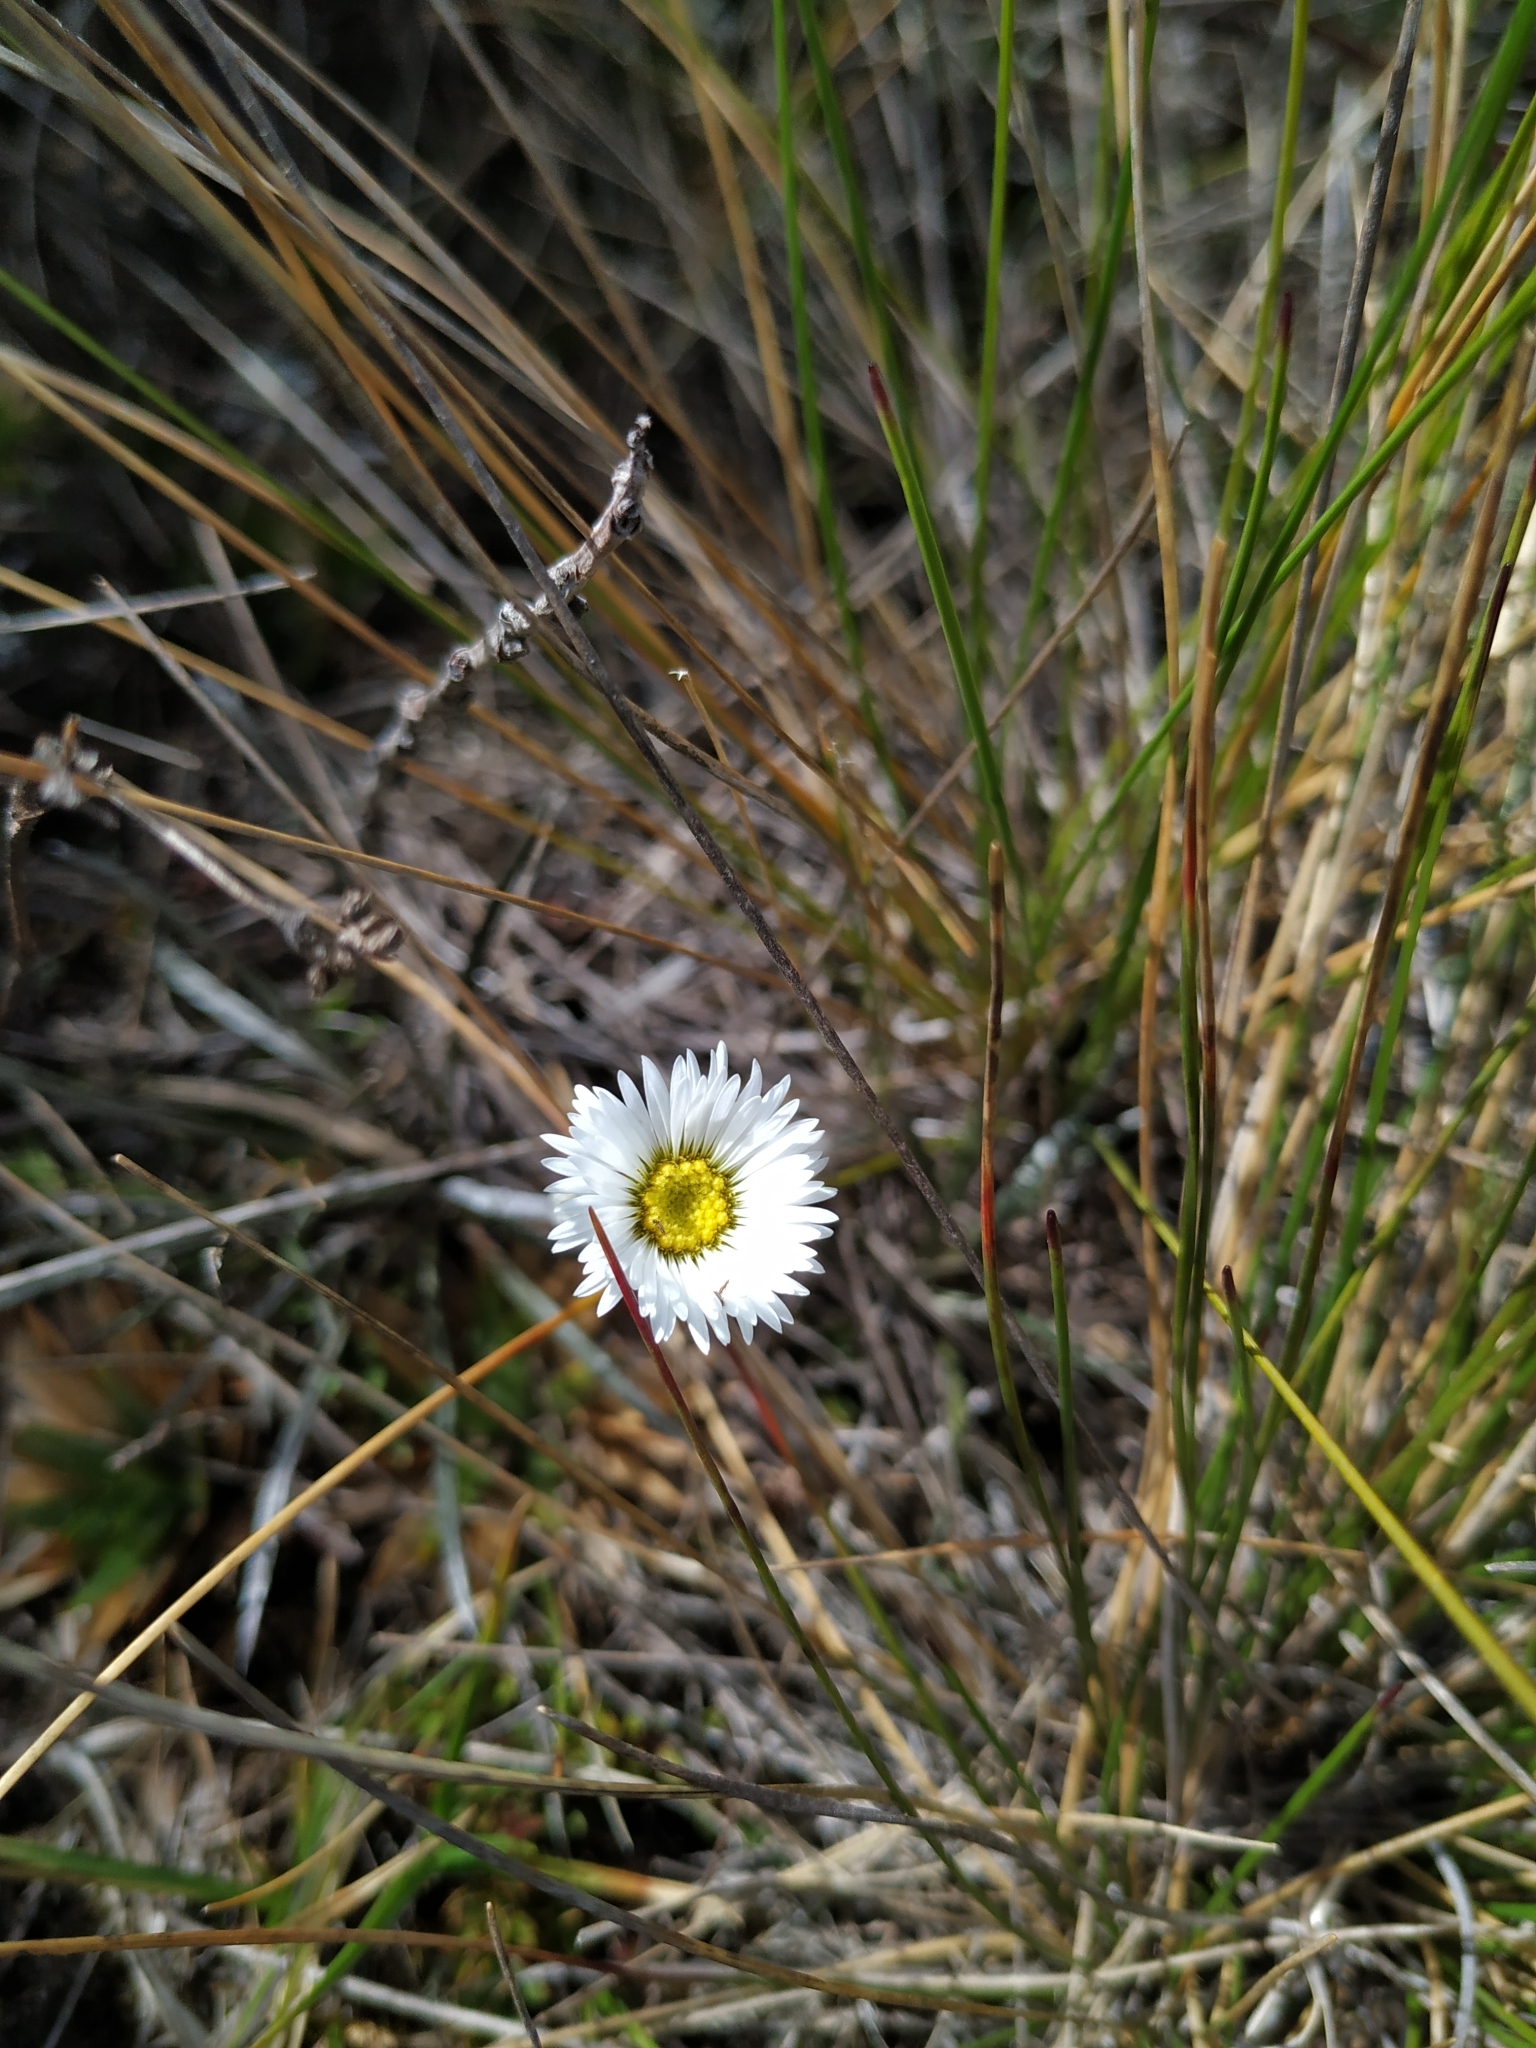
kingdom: Plantae
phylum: Tracheophyta
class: Magnoliopsida
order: Asterales
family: Asteraceae
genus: Oritrophium
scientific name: Oritrophium peruvianum
